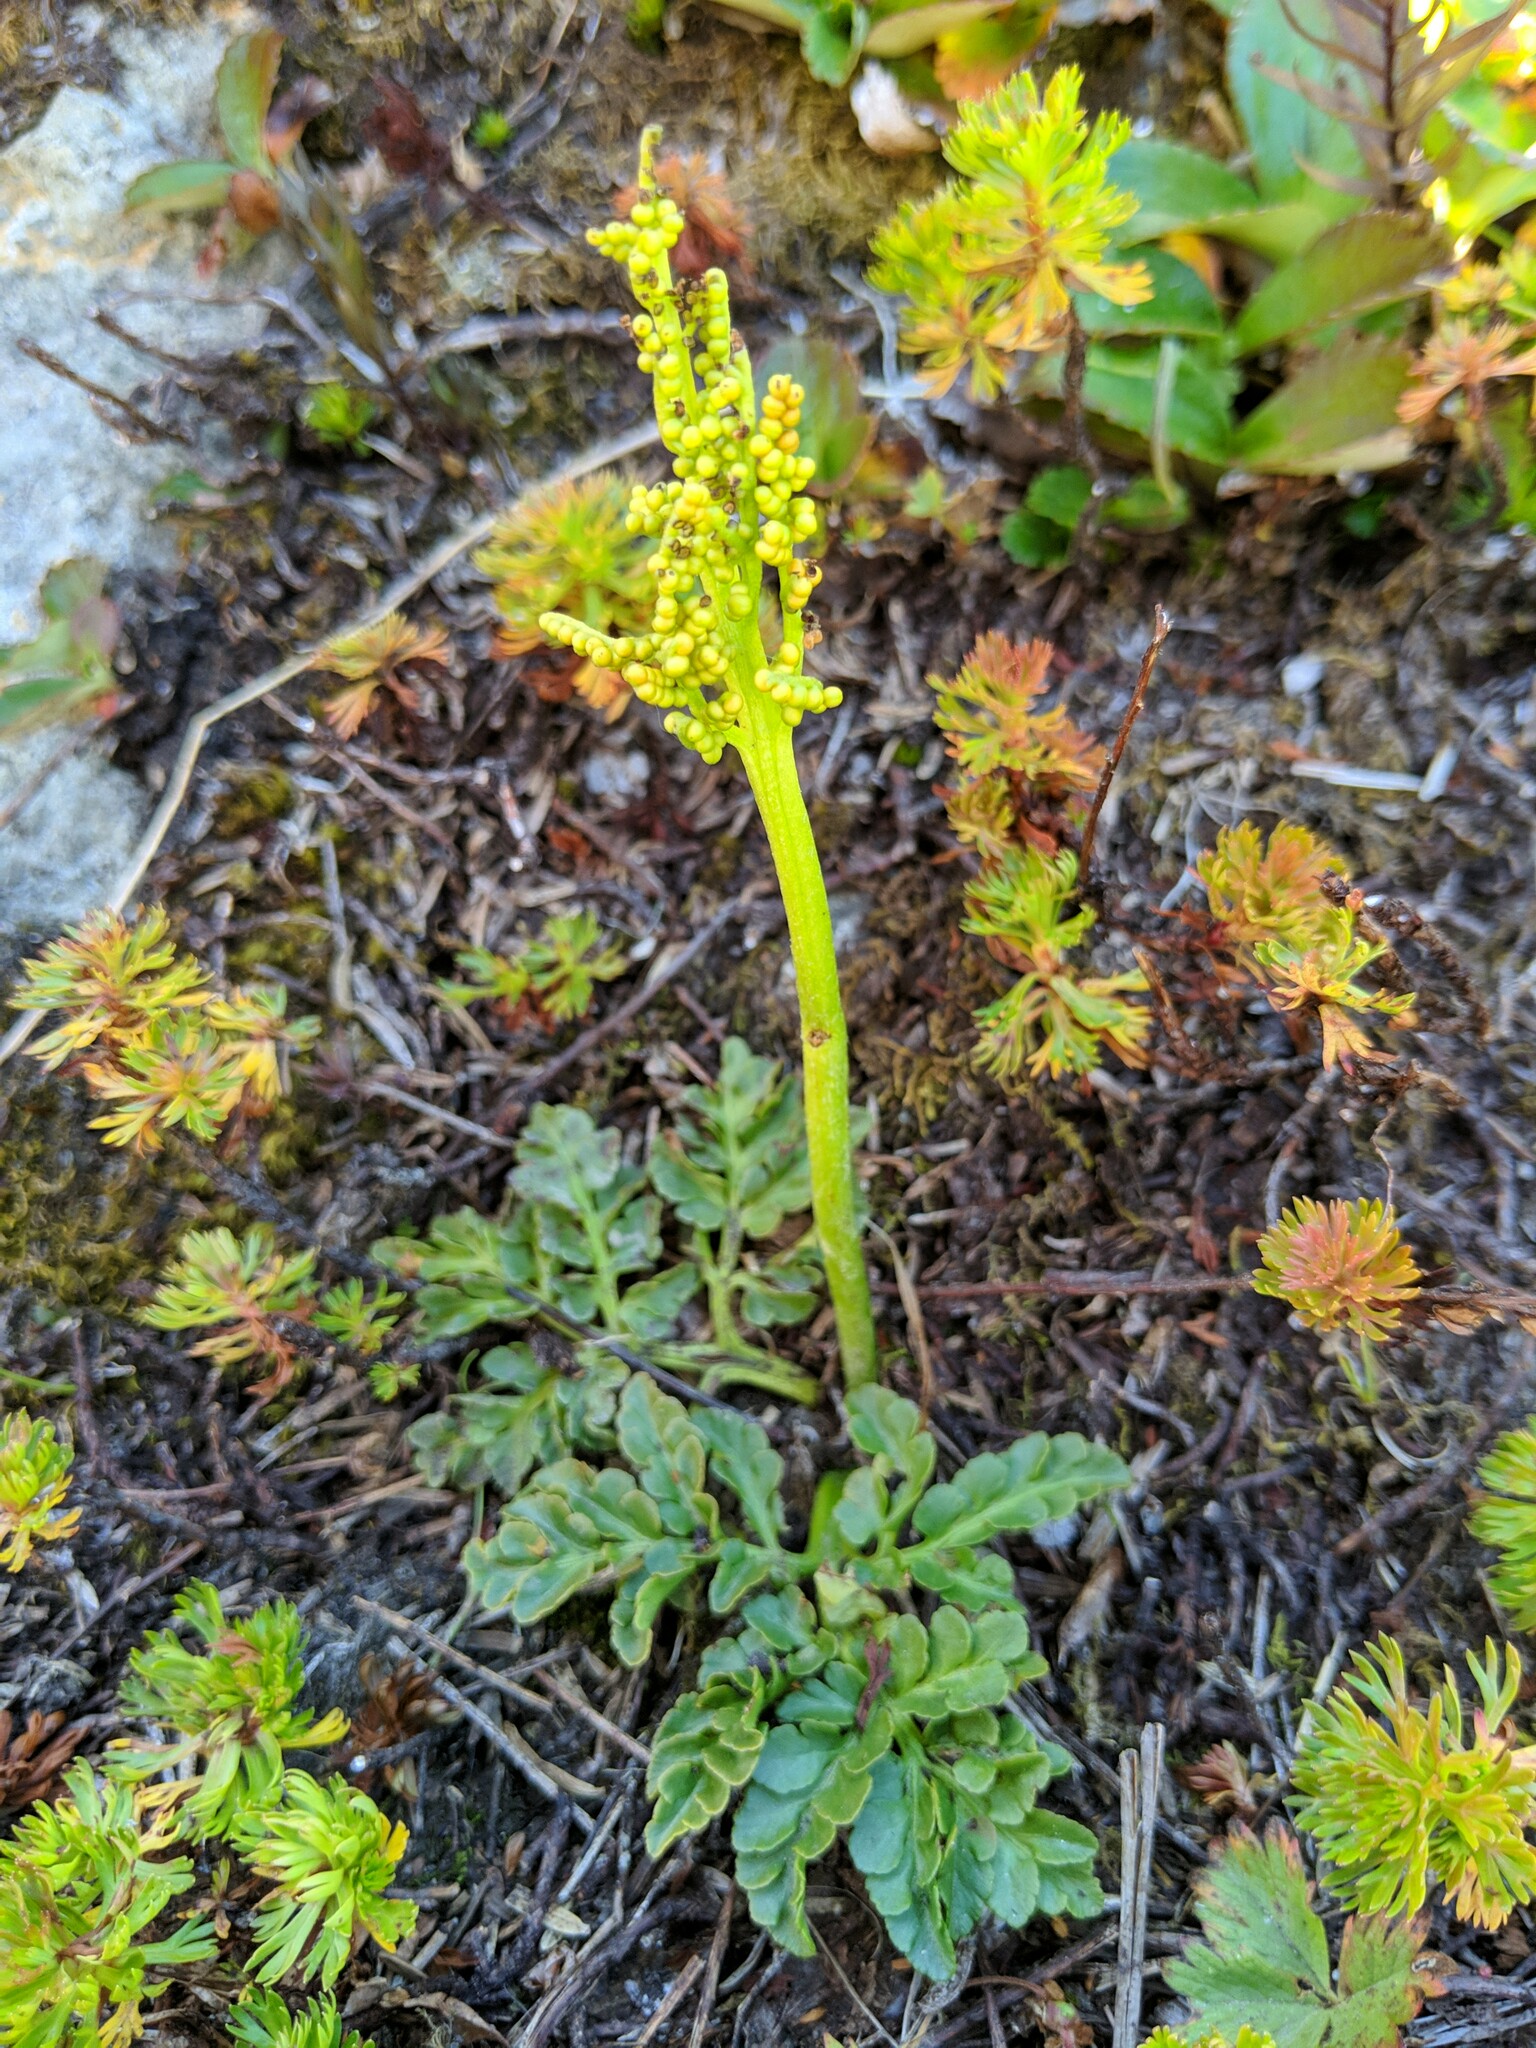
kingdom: Plantae
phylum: Tracheophyta
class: Polypodiopsida
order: Ophioglossales
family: Ophioglossaceae
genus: Sceptridium
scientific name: Sceptridium multifidum
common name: Leathery grape fern
